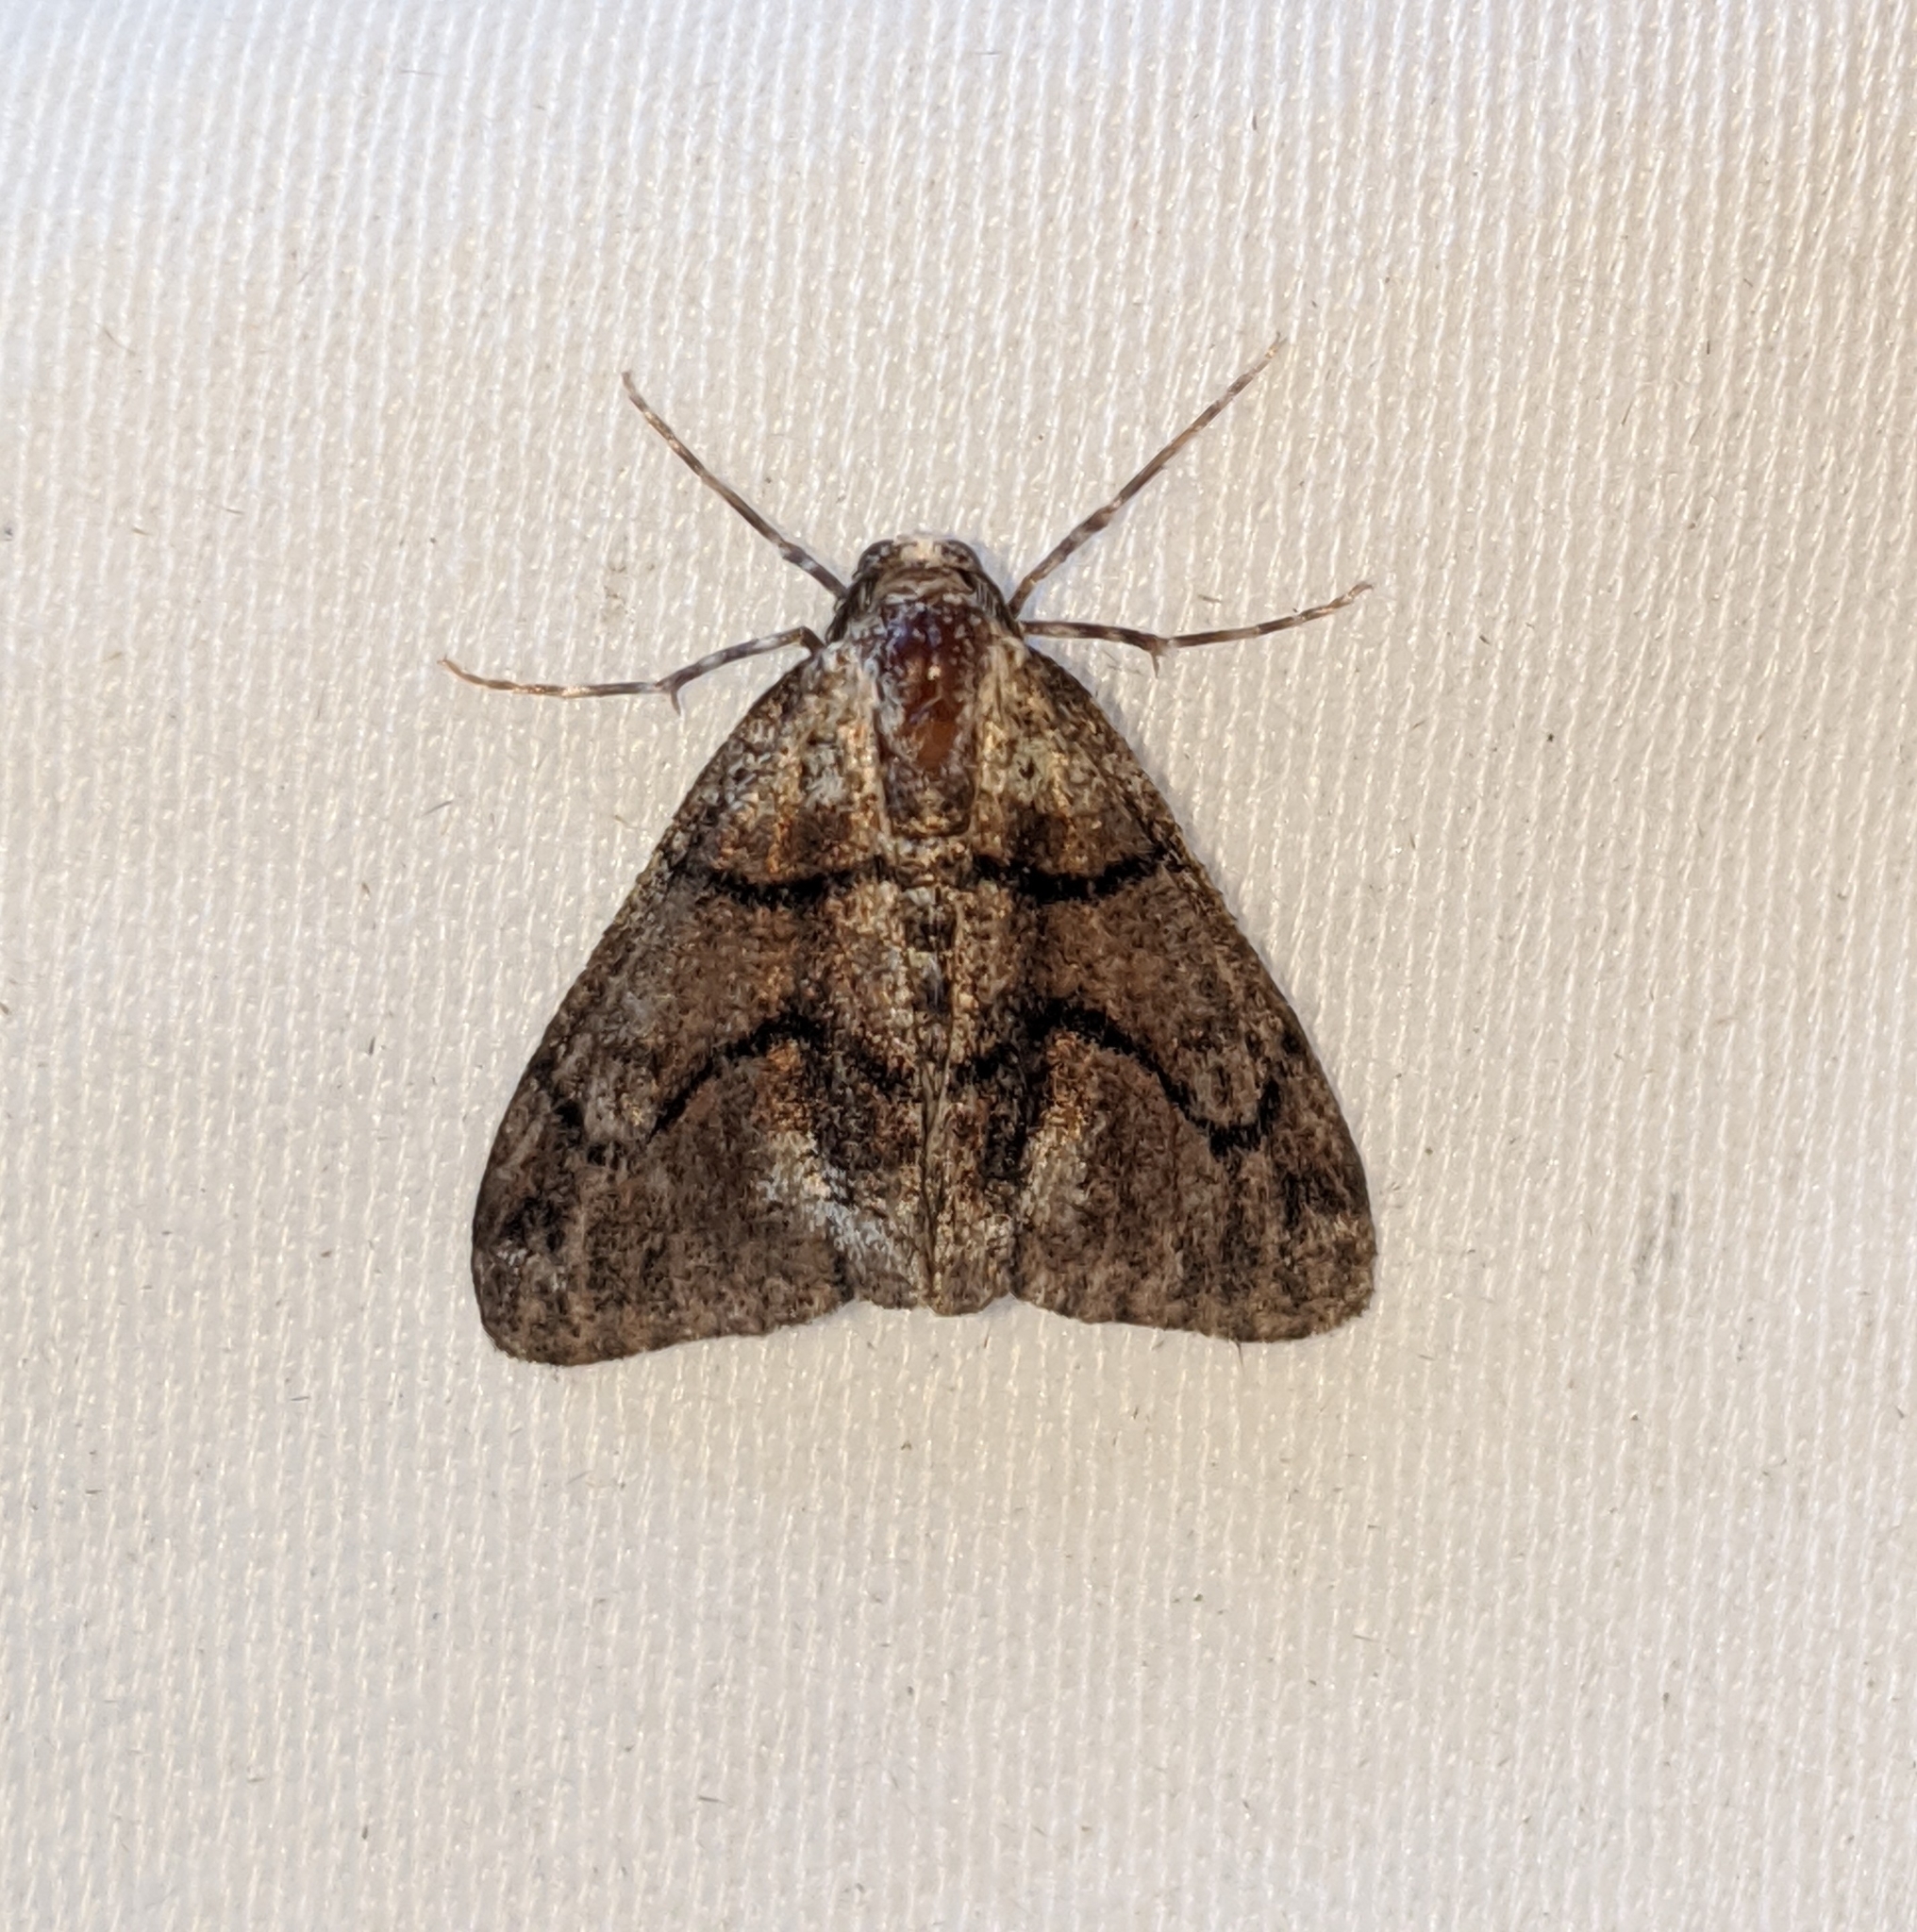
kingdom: Animalia
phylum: Arthropoda
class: Insecta
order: Lepidoptera
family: Geometridae
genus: Gabriola
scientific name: Gabriola dyari
